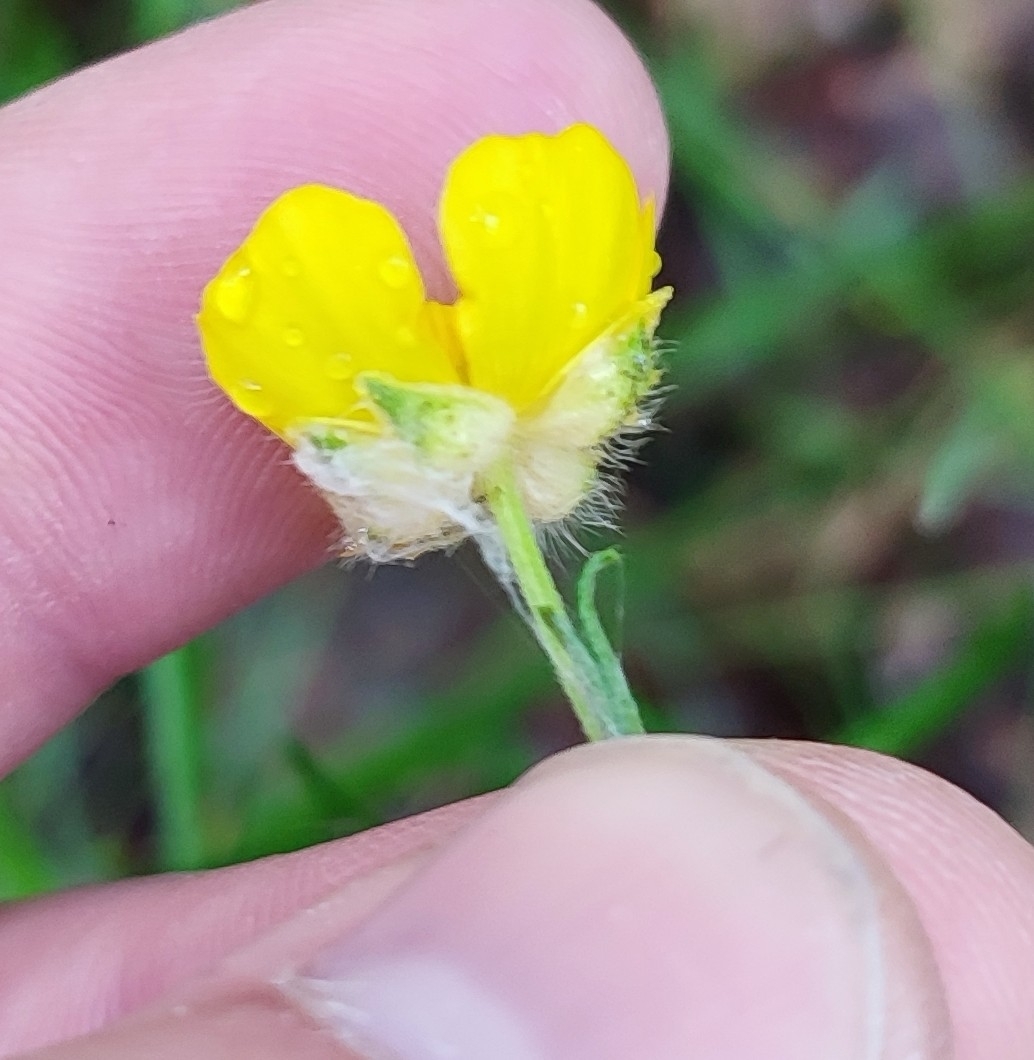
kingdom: Plantae
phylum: Tracheophyta
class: Magnoliopsida
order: Ranunculales
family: Ranunculaceae
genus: Ranunculus
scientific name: Ranunculus polyanthemos
